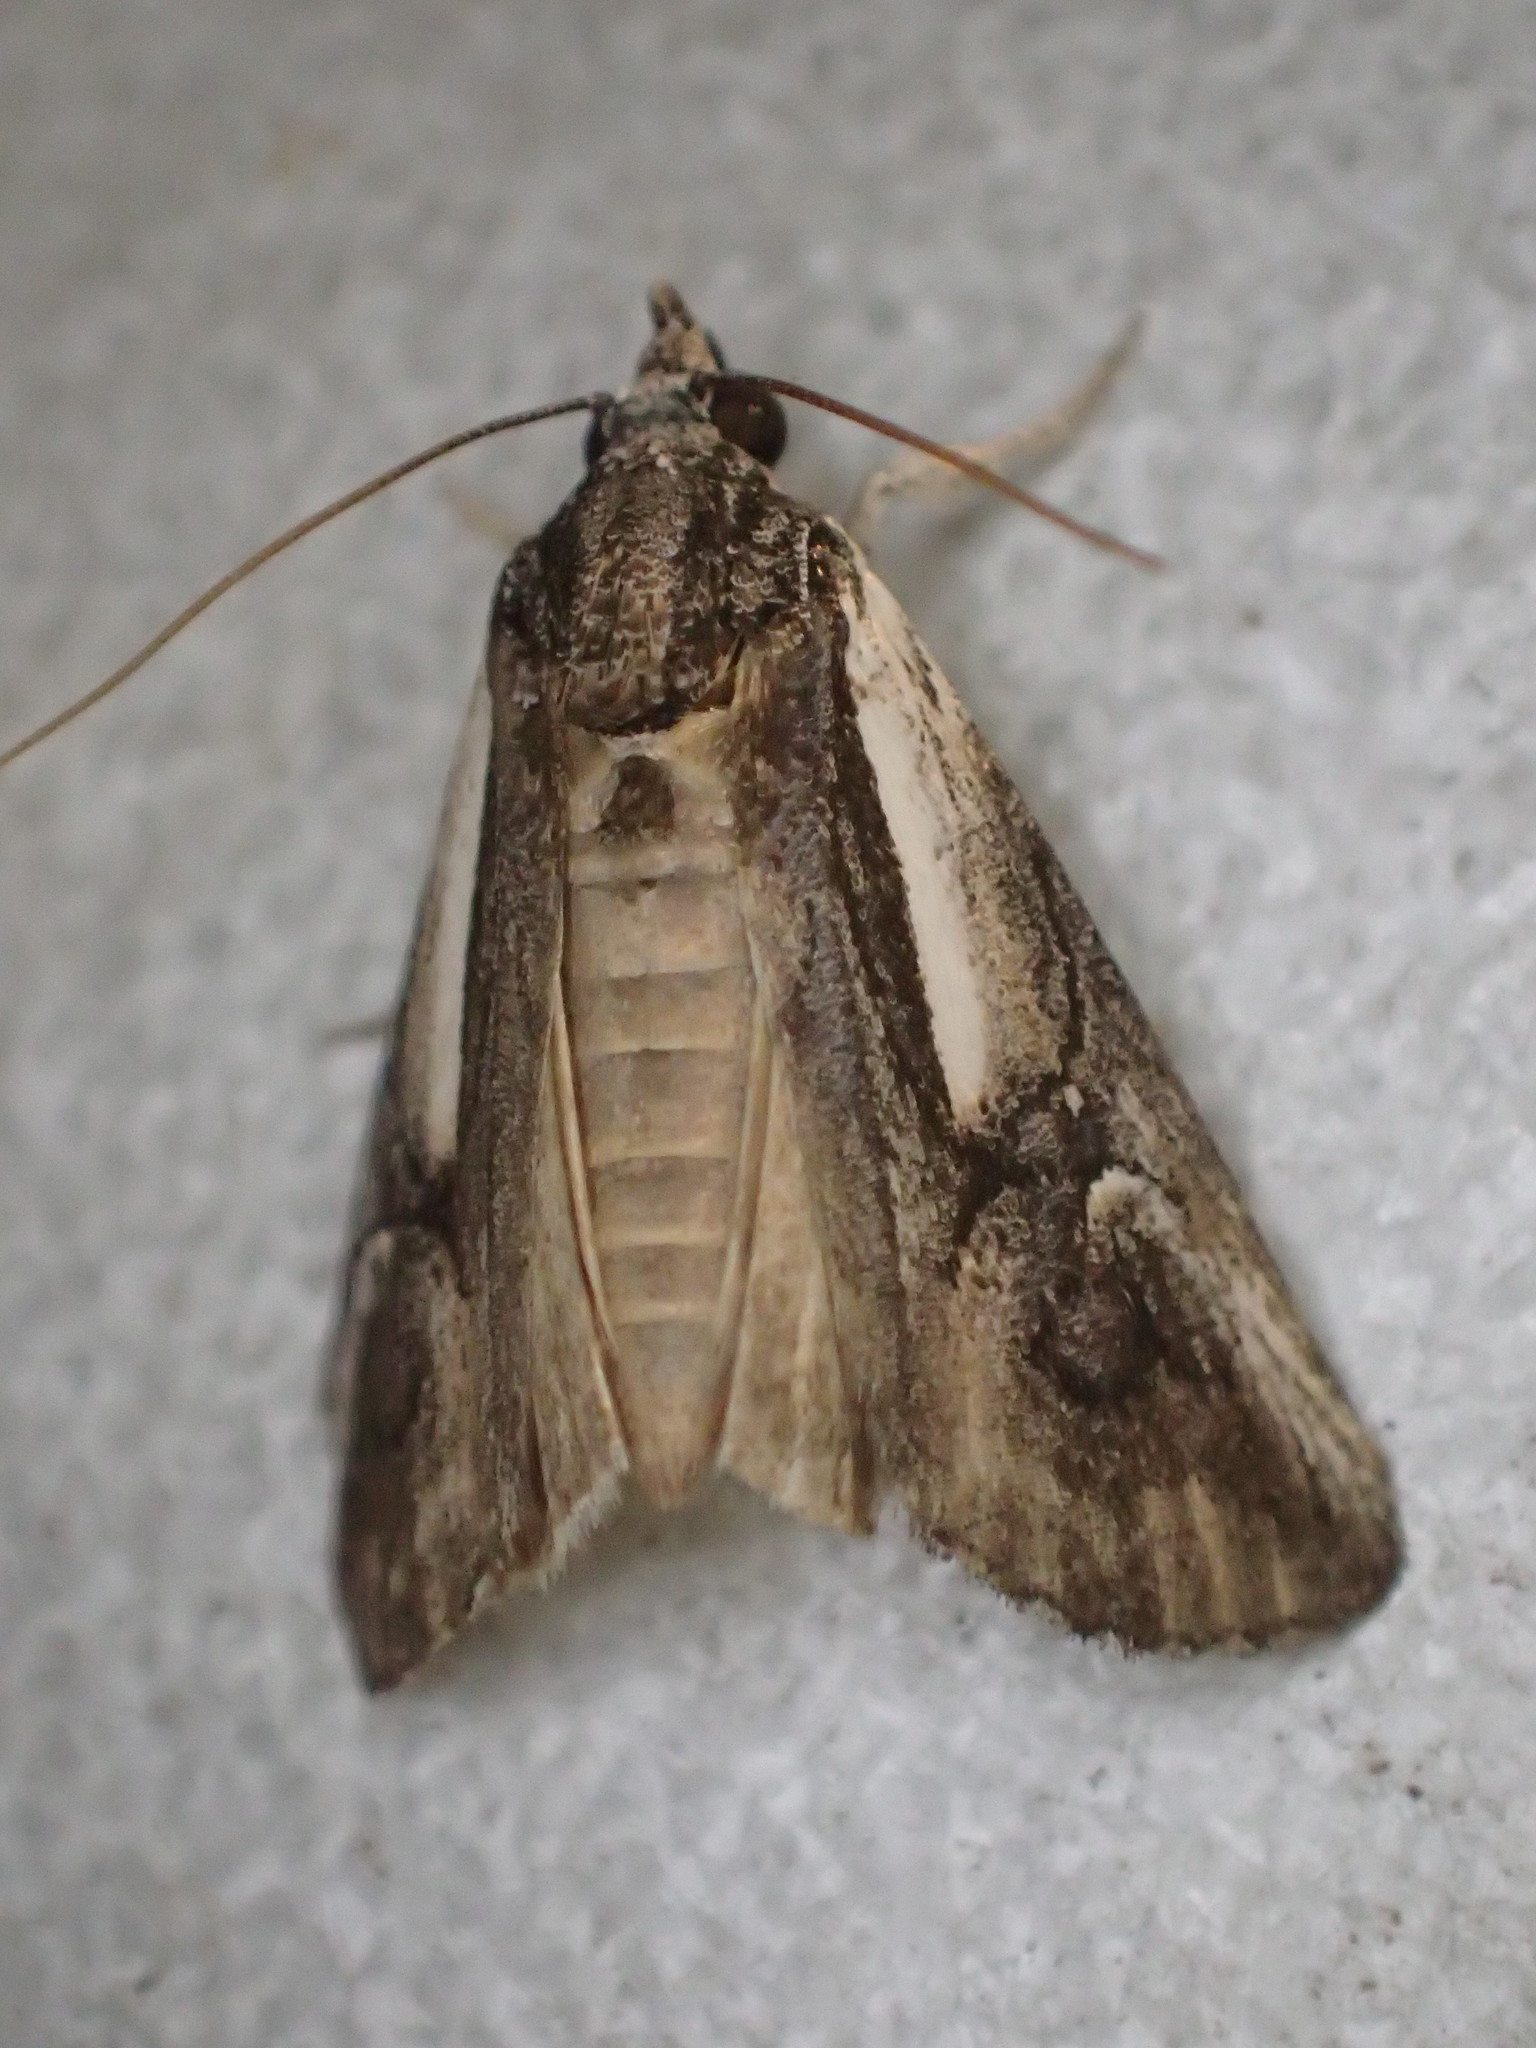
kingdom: Animalia
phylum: Arthropoda
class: Insecta
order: Lepidoptera
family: Erebidae
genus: Stenoprora
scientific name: Stenoprora perspicua
